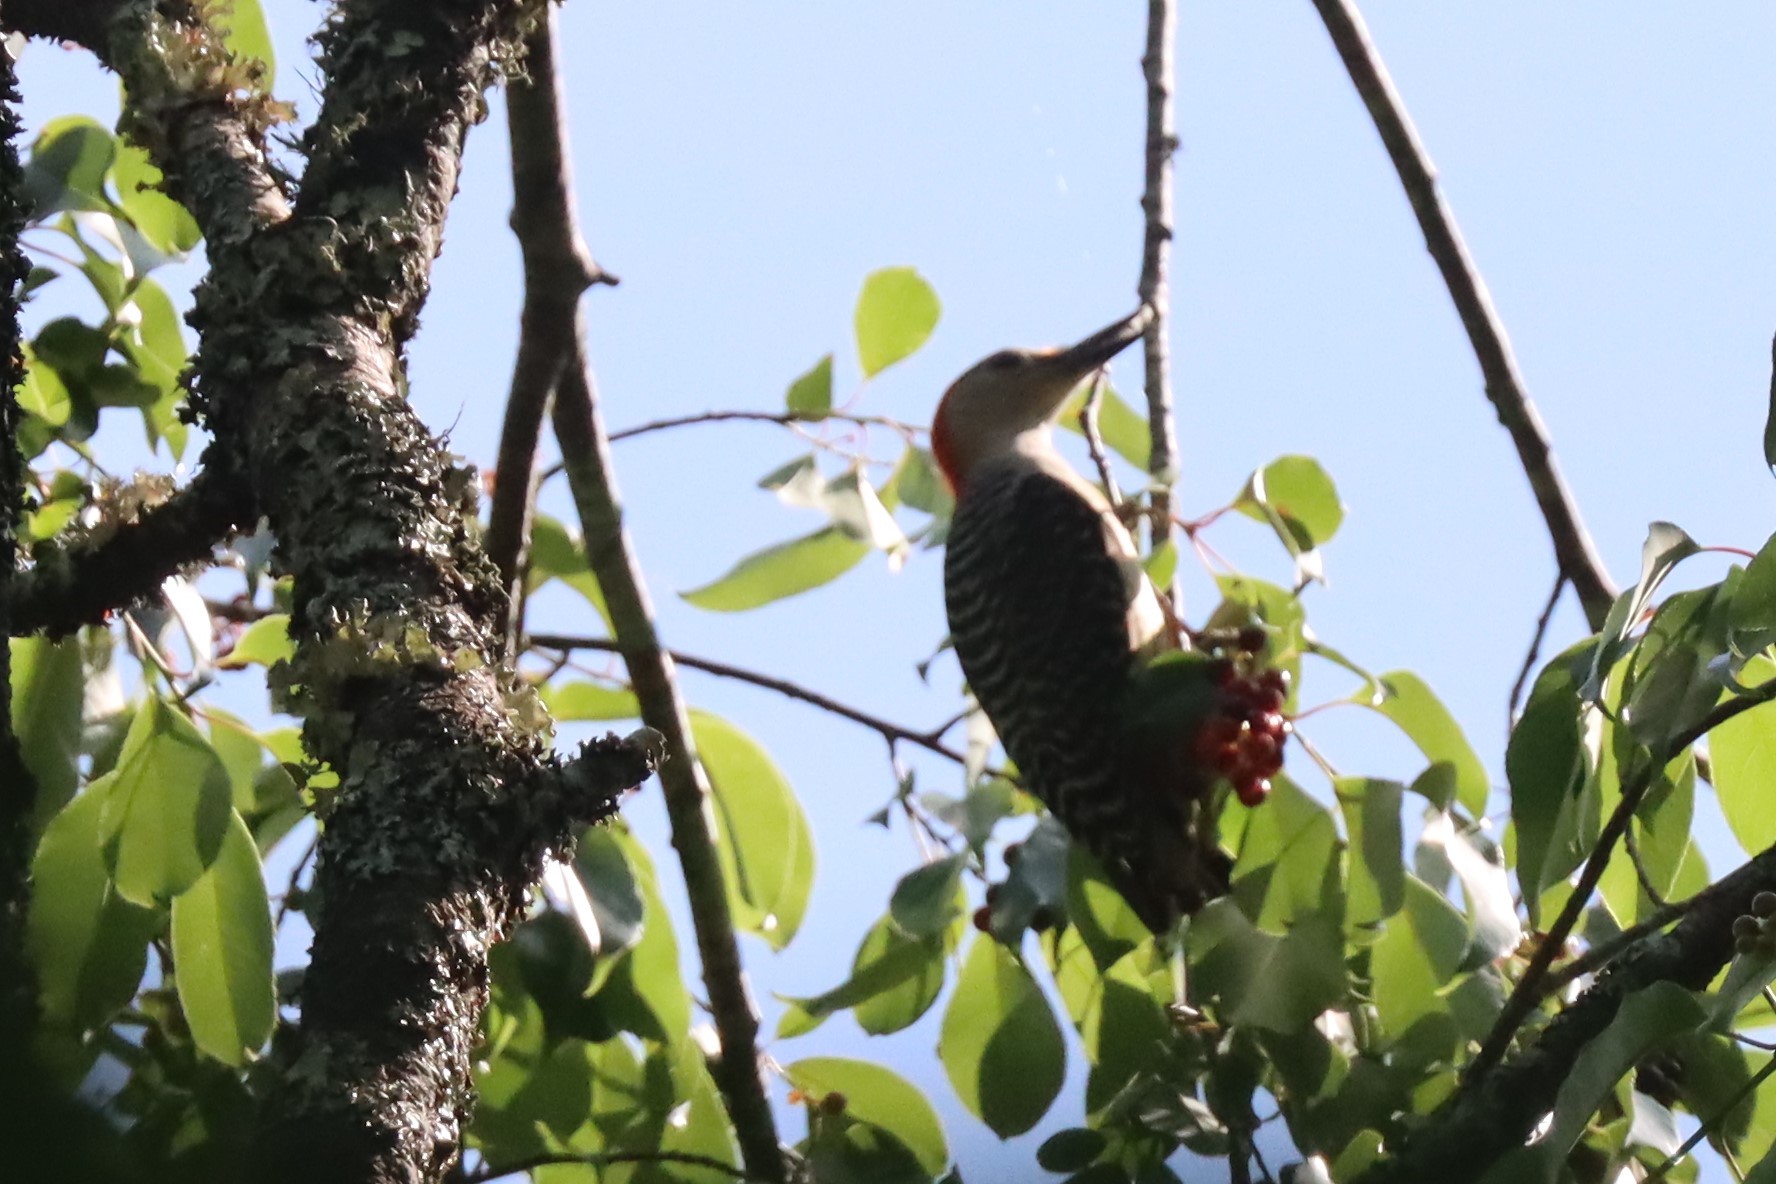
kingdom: Animalia
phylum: Chordata
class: Aves
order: Piciformes
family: Picidae
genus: Melanerpes
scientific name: Melanerpes carolinus
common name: Red-bellied woodpecker
